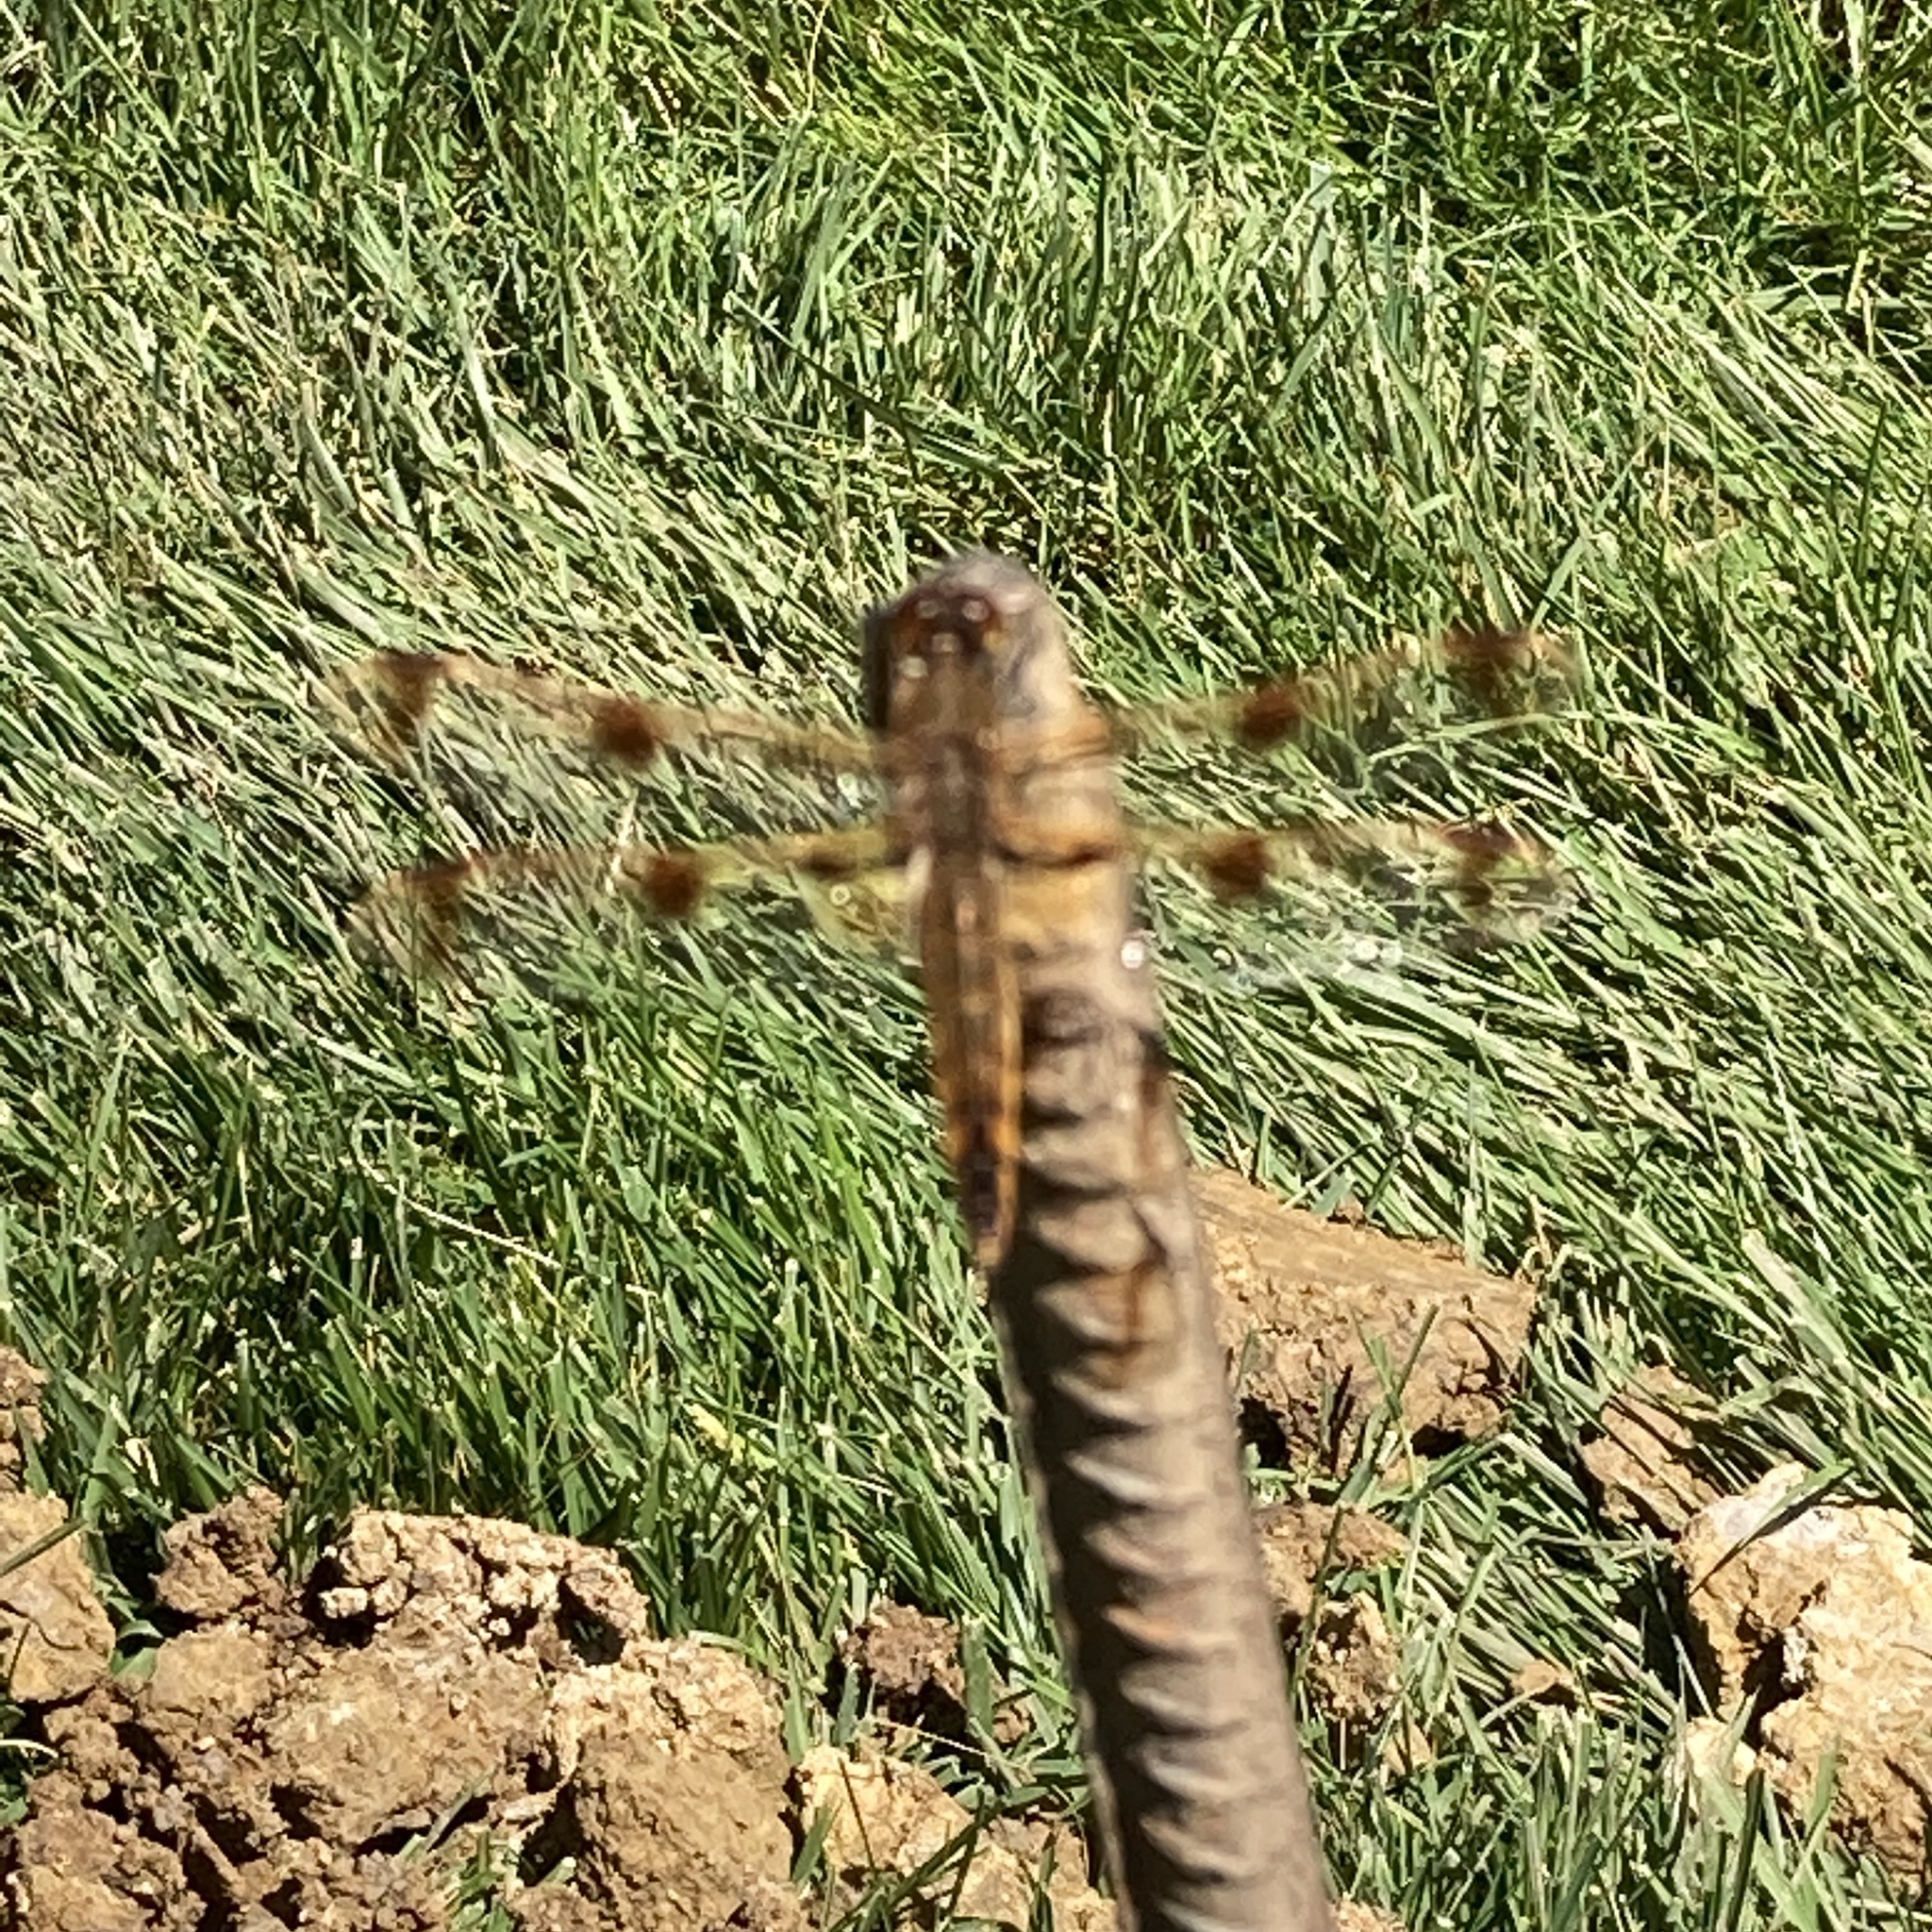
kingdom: Animalia
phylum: Arthropoda
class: Insecta
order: Odonata
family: Libellulidae
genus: Libellula
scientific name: Libellula semifasciata
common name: Painted skimmer
